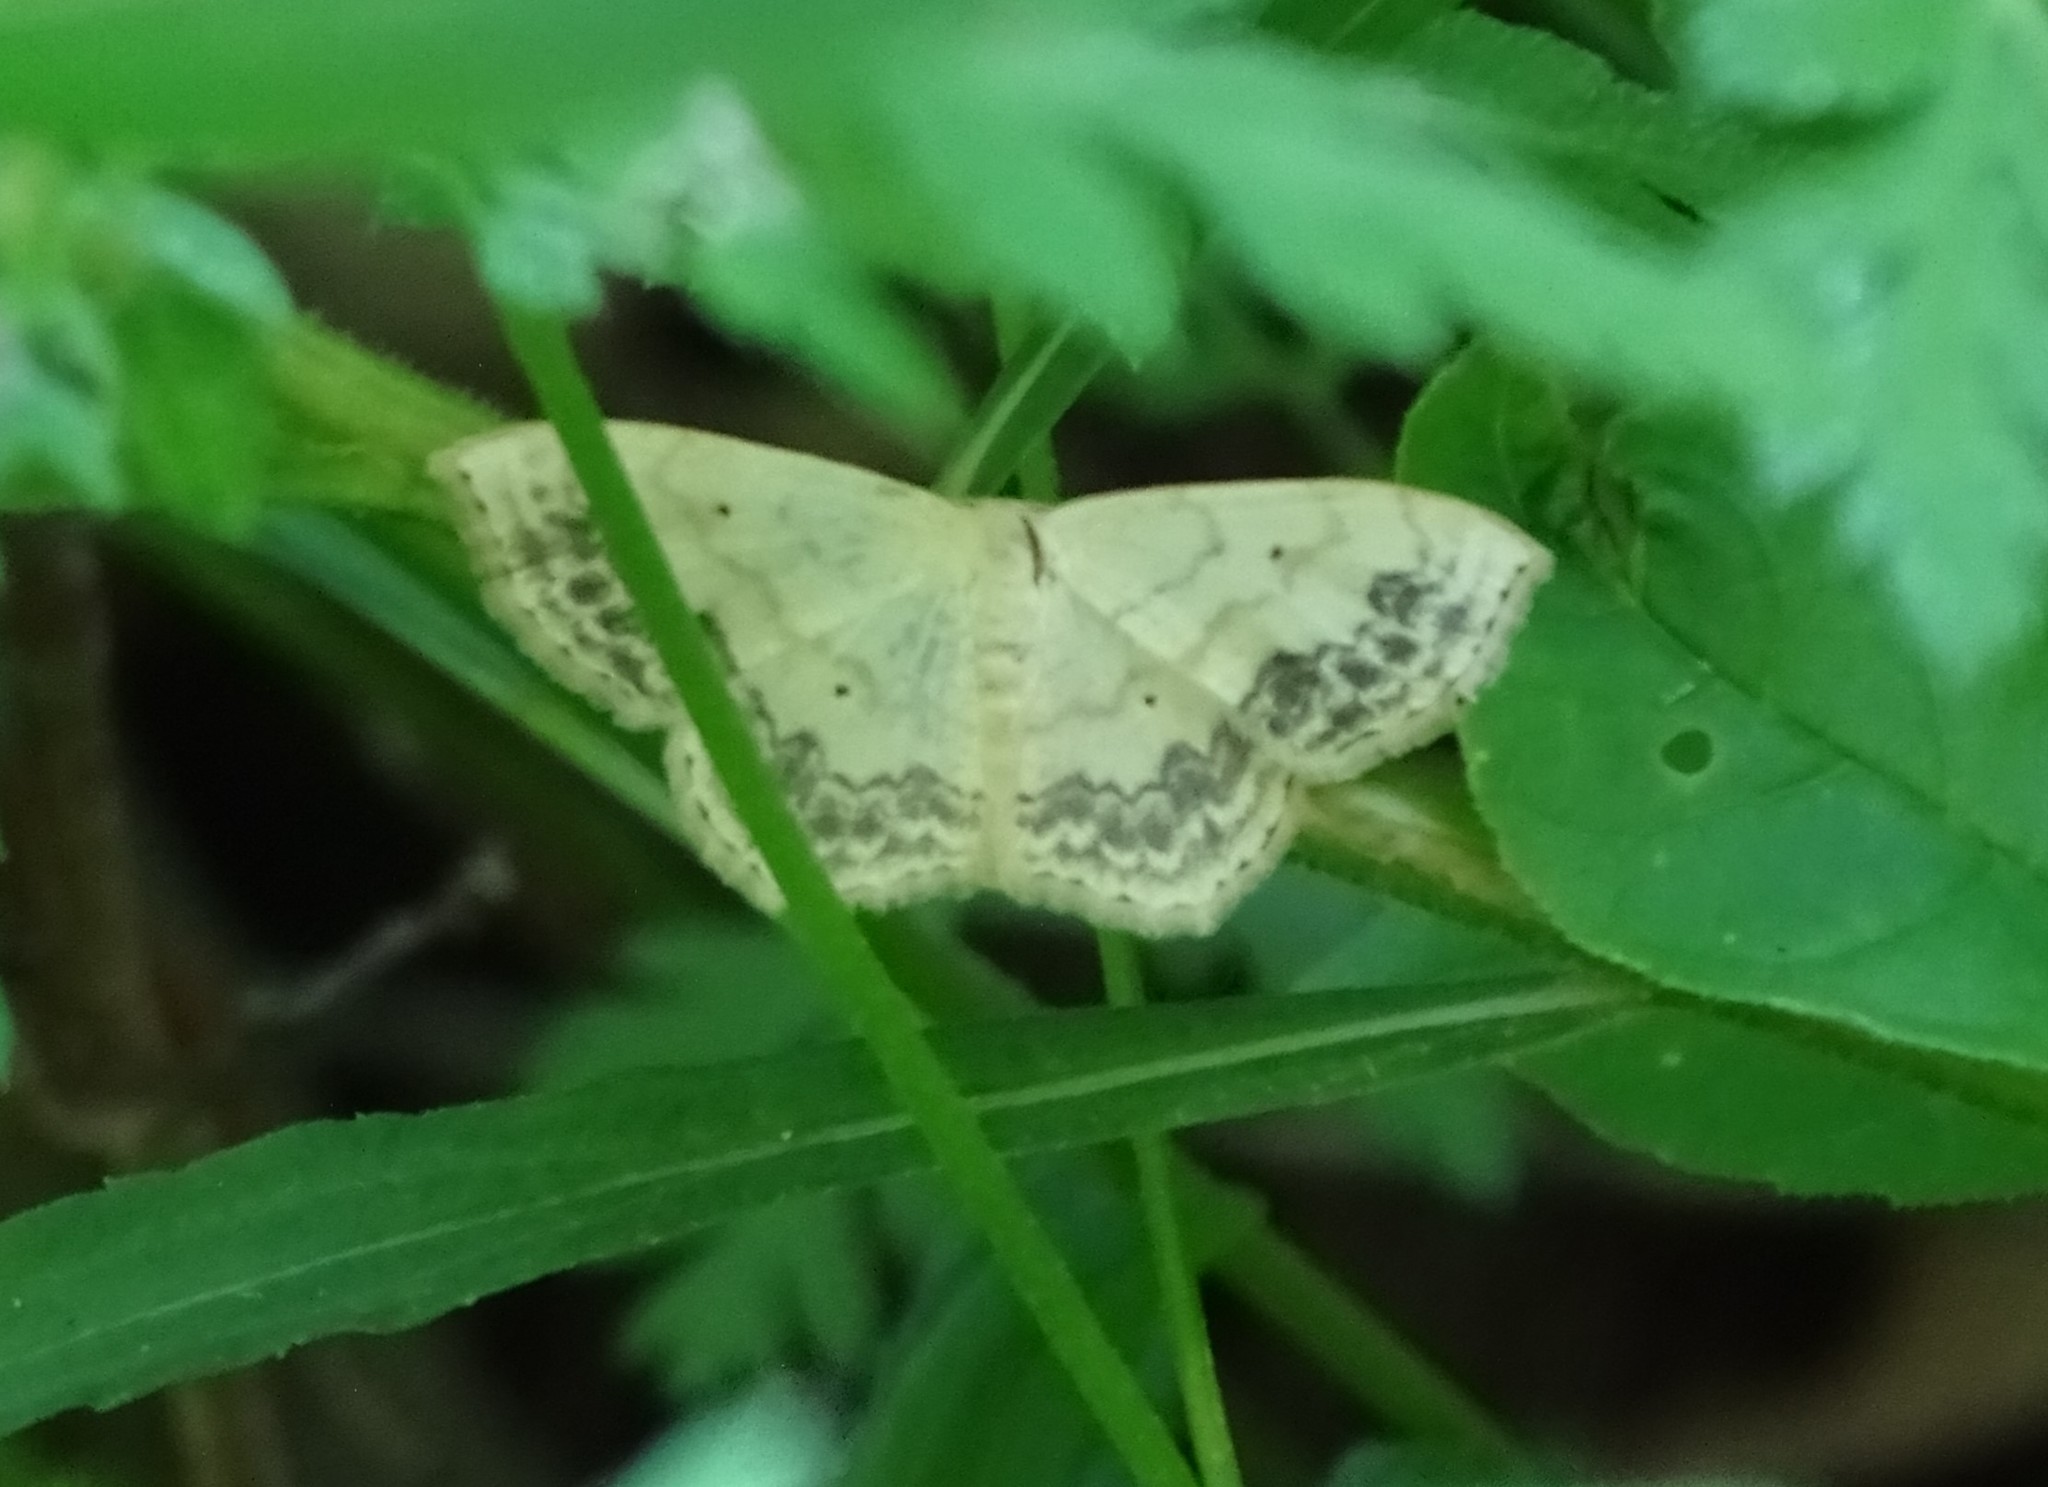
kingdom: Animalia
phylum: Arthropoda
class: Insecta
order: Lepidoptera
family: Geometridae
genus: Scopula
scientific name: Scopula limboundata
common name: Large lace border
